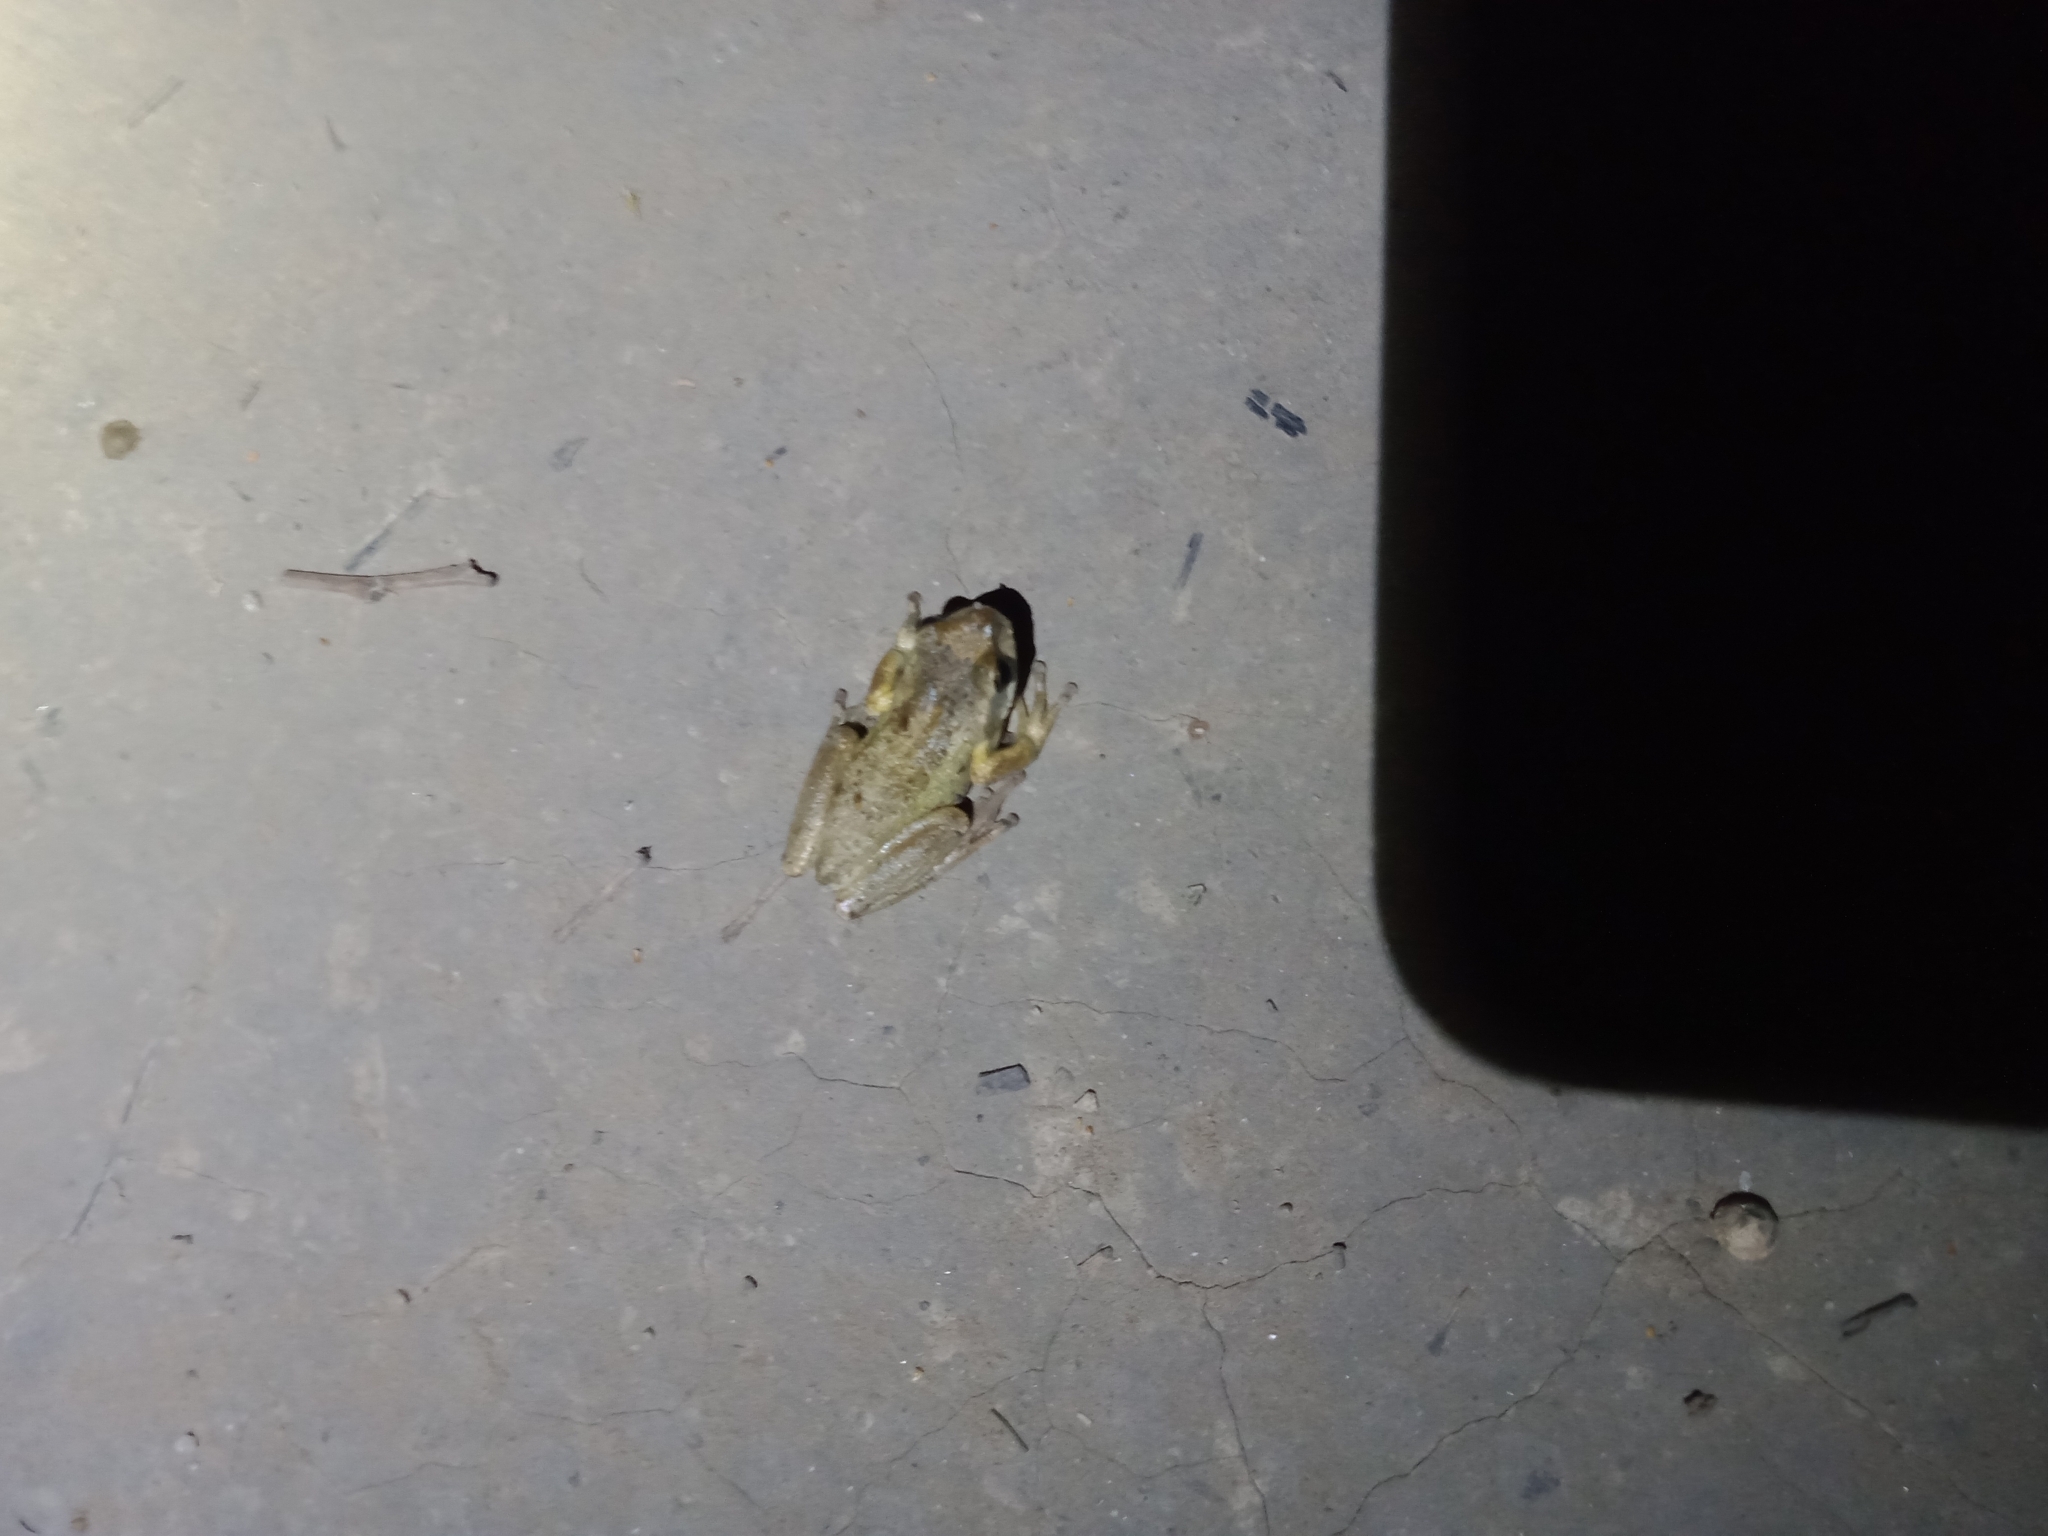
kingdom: Animalia
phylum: Chordata
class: Amphibia
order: Anura
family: Pelodryadidae
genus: Litoria
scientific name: Litoria ewingii
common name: Southern brown tree frog
